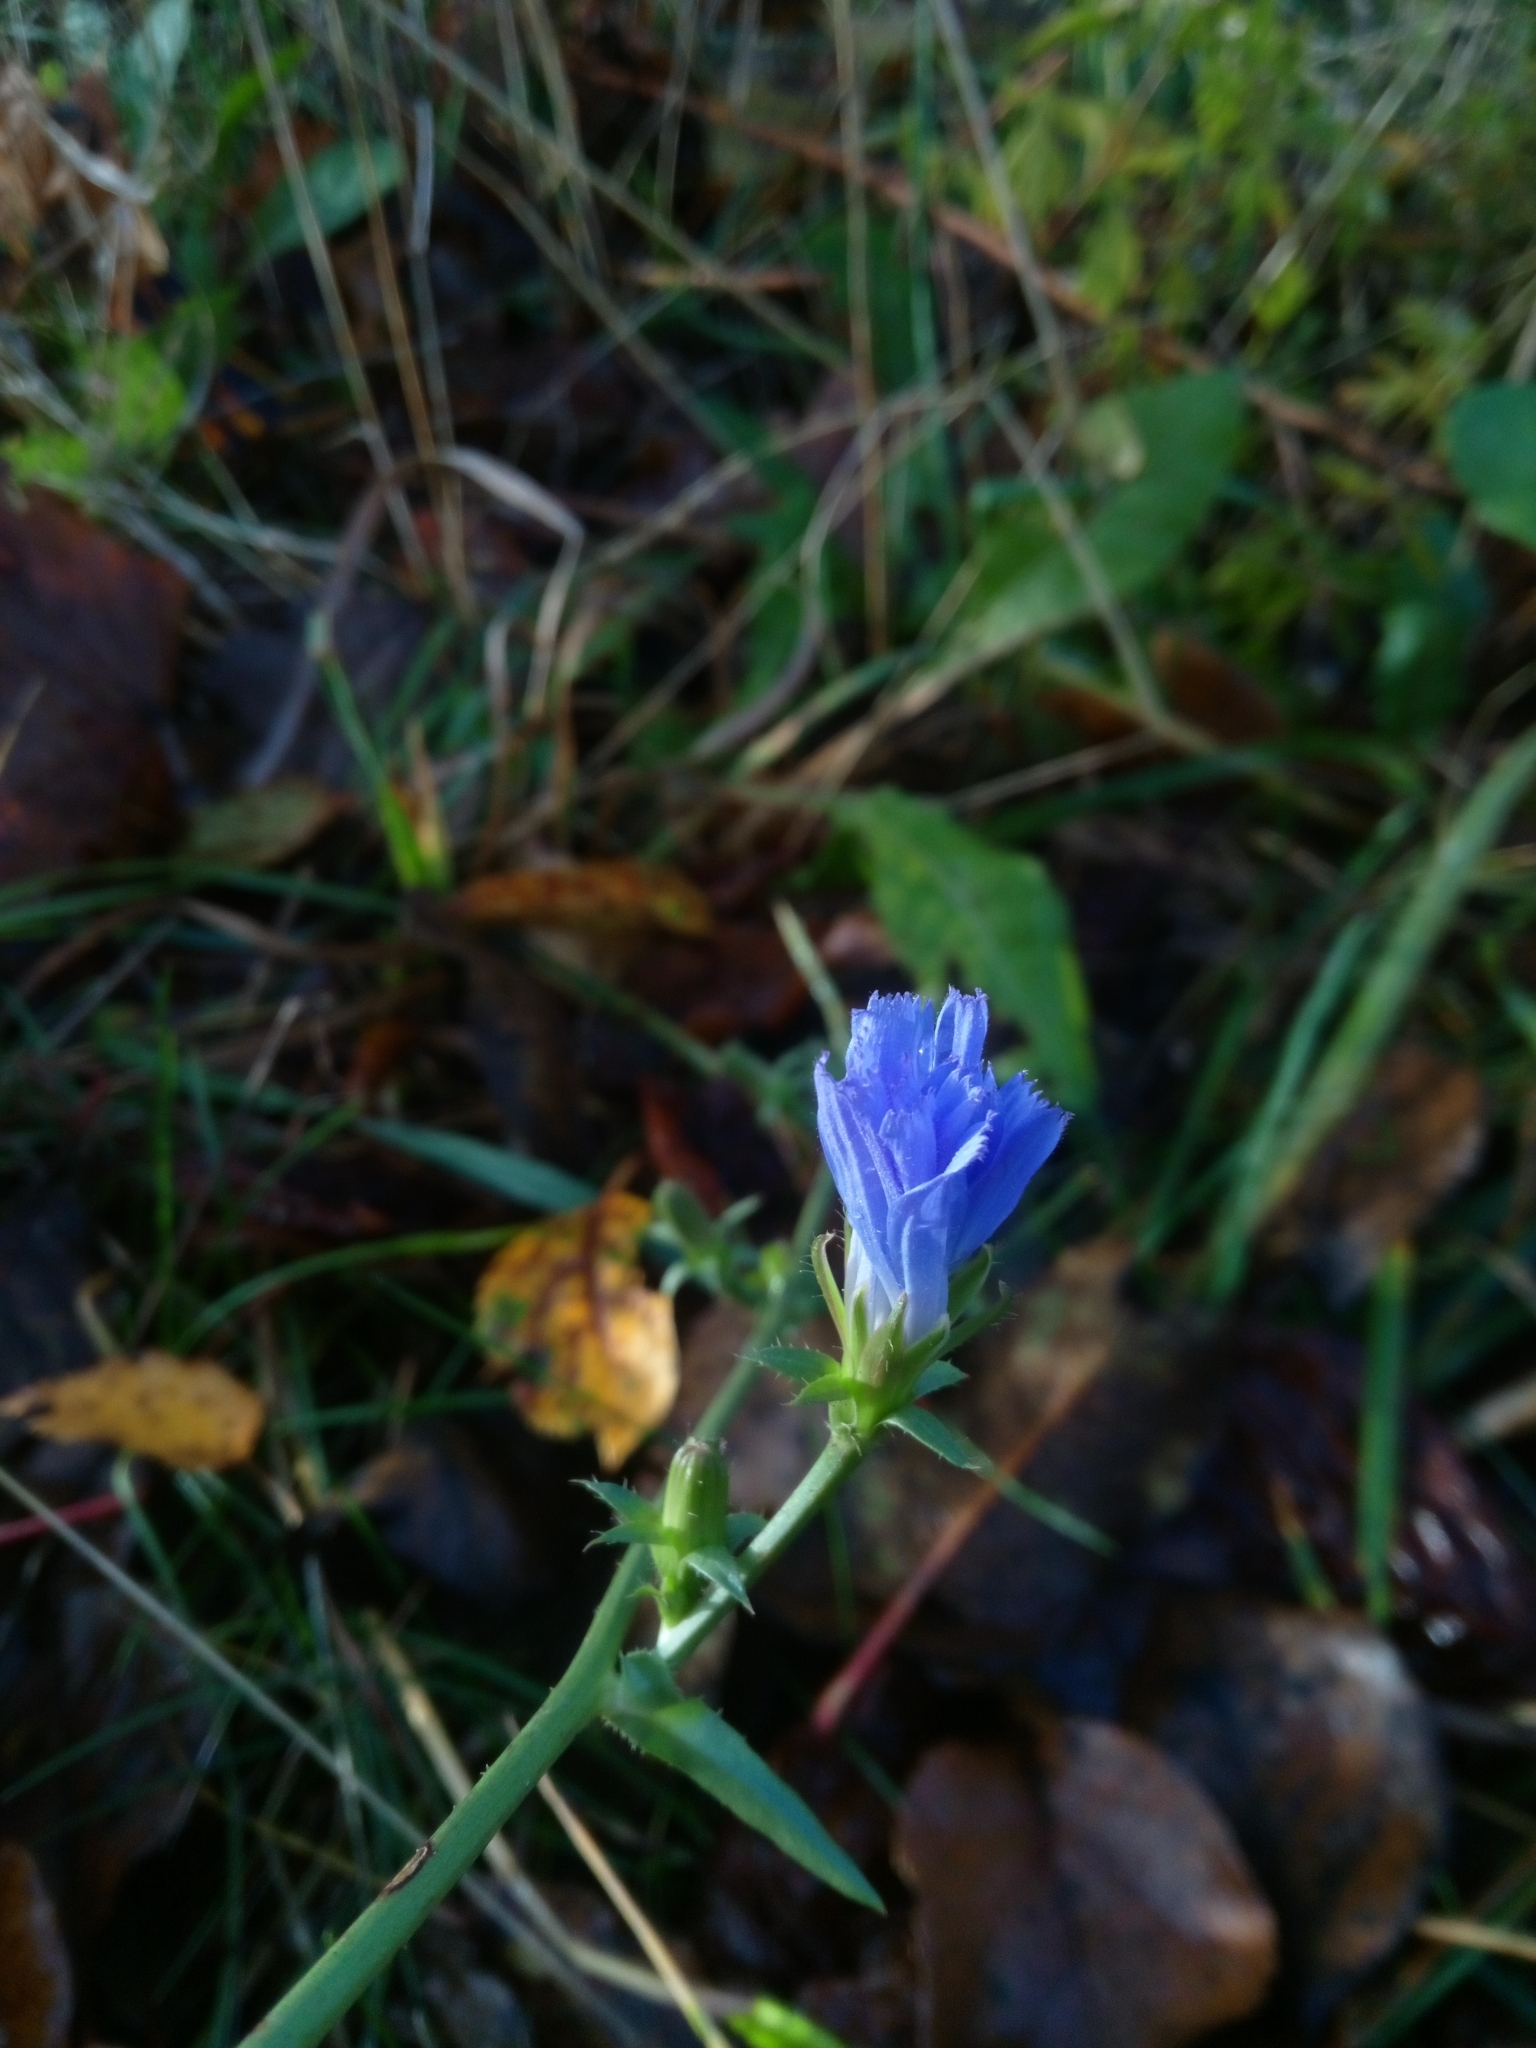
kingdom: Plantae
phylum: Tracheophyta
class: Magnoliopsida
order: Asterales
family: Asteraceae
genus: Cichorium
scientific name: Cichorium intybus
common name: Chicory
